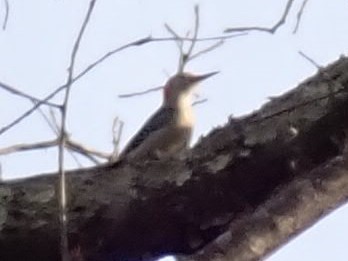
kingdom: Animalia
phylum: Chordata
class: Aves
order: Piciformes
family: Picidae
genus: Melanerpes
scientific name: Melanerpes carolinus
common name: Red-bellied woodpecker
